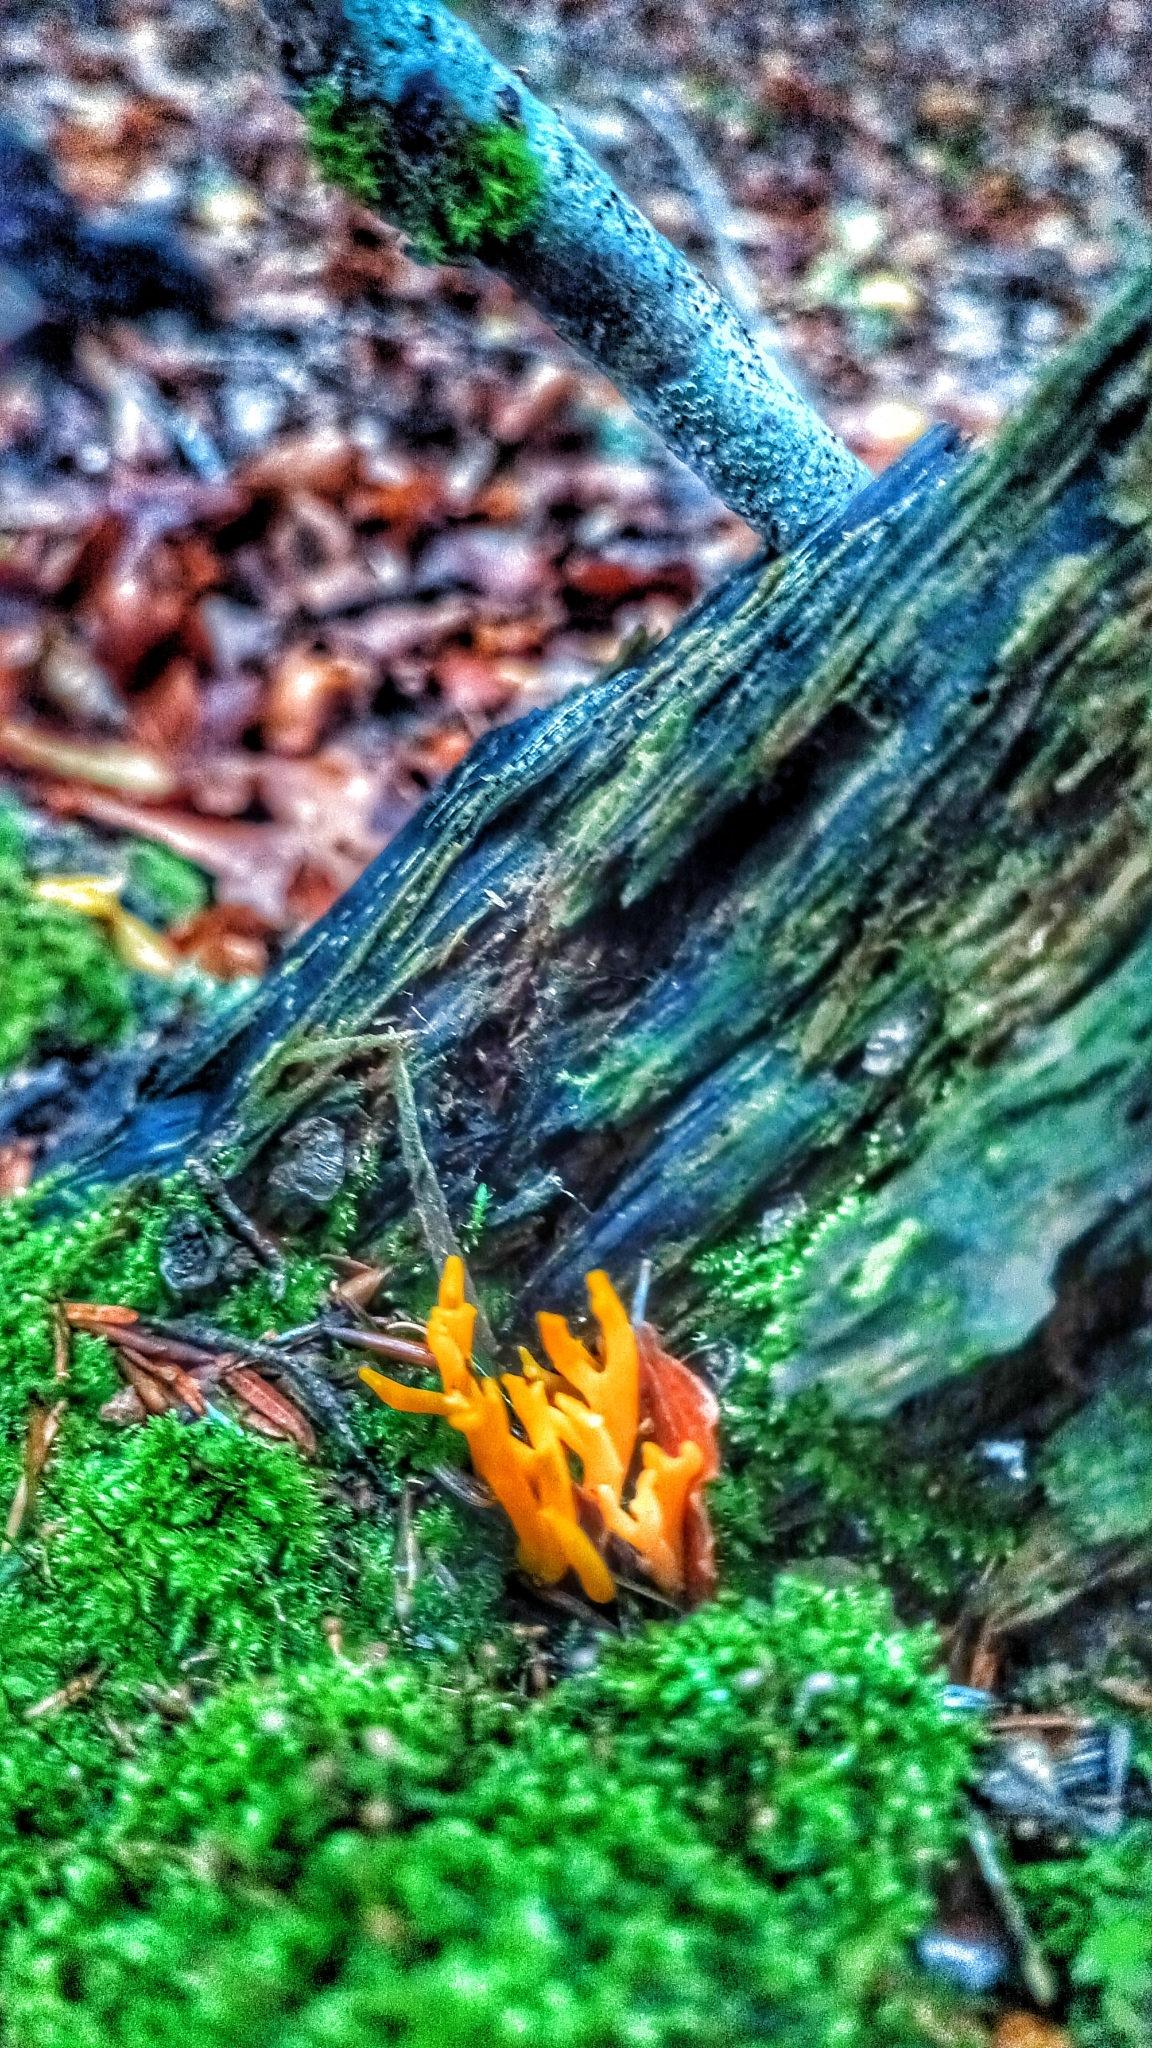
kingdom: Fungi
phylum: Basidiomycota
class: Dacrymycetes
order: Dacrymycetales
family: Dacrymycetaceae
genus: Calocera
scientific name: Calocera viscosa
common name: Yellow stagshorn
